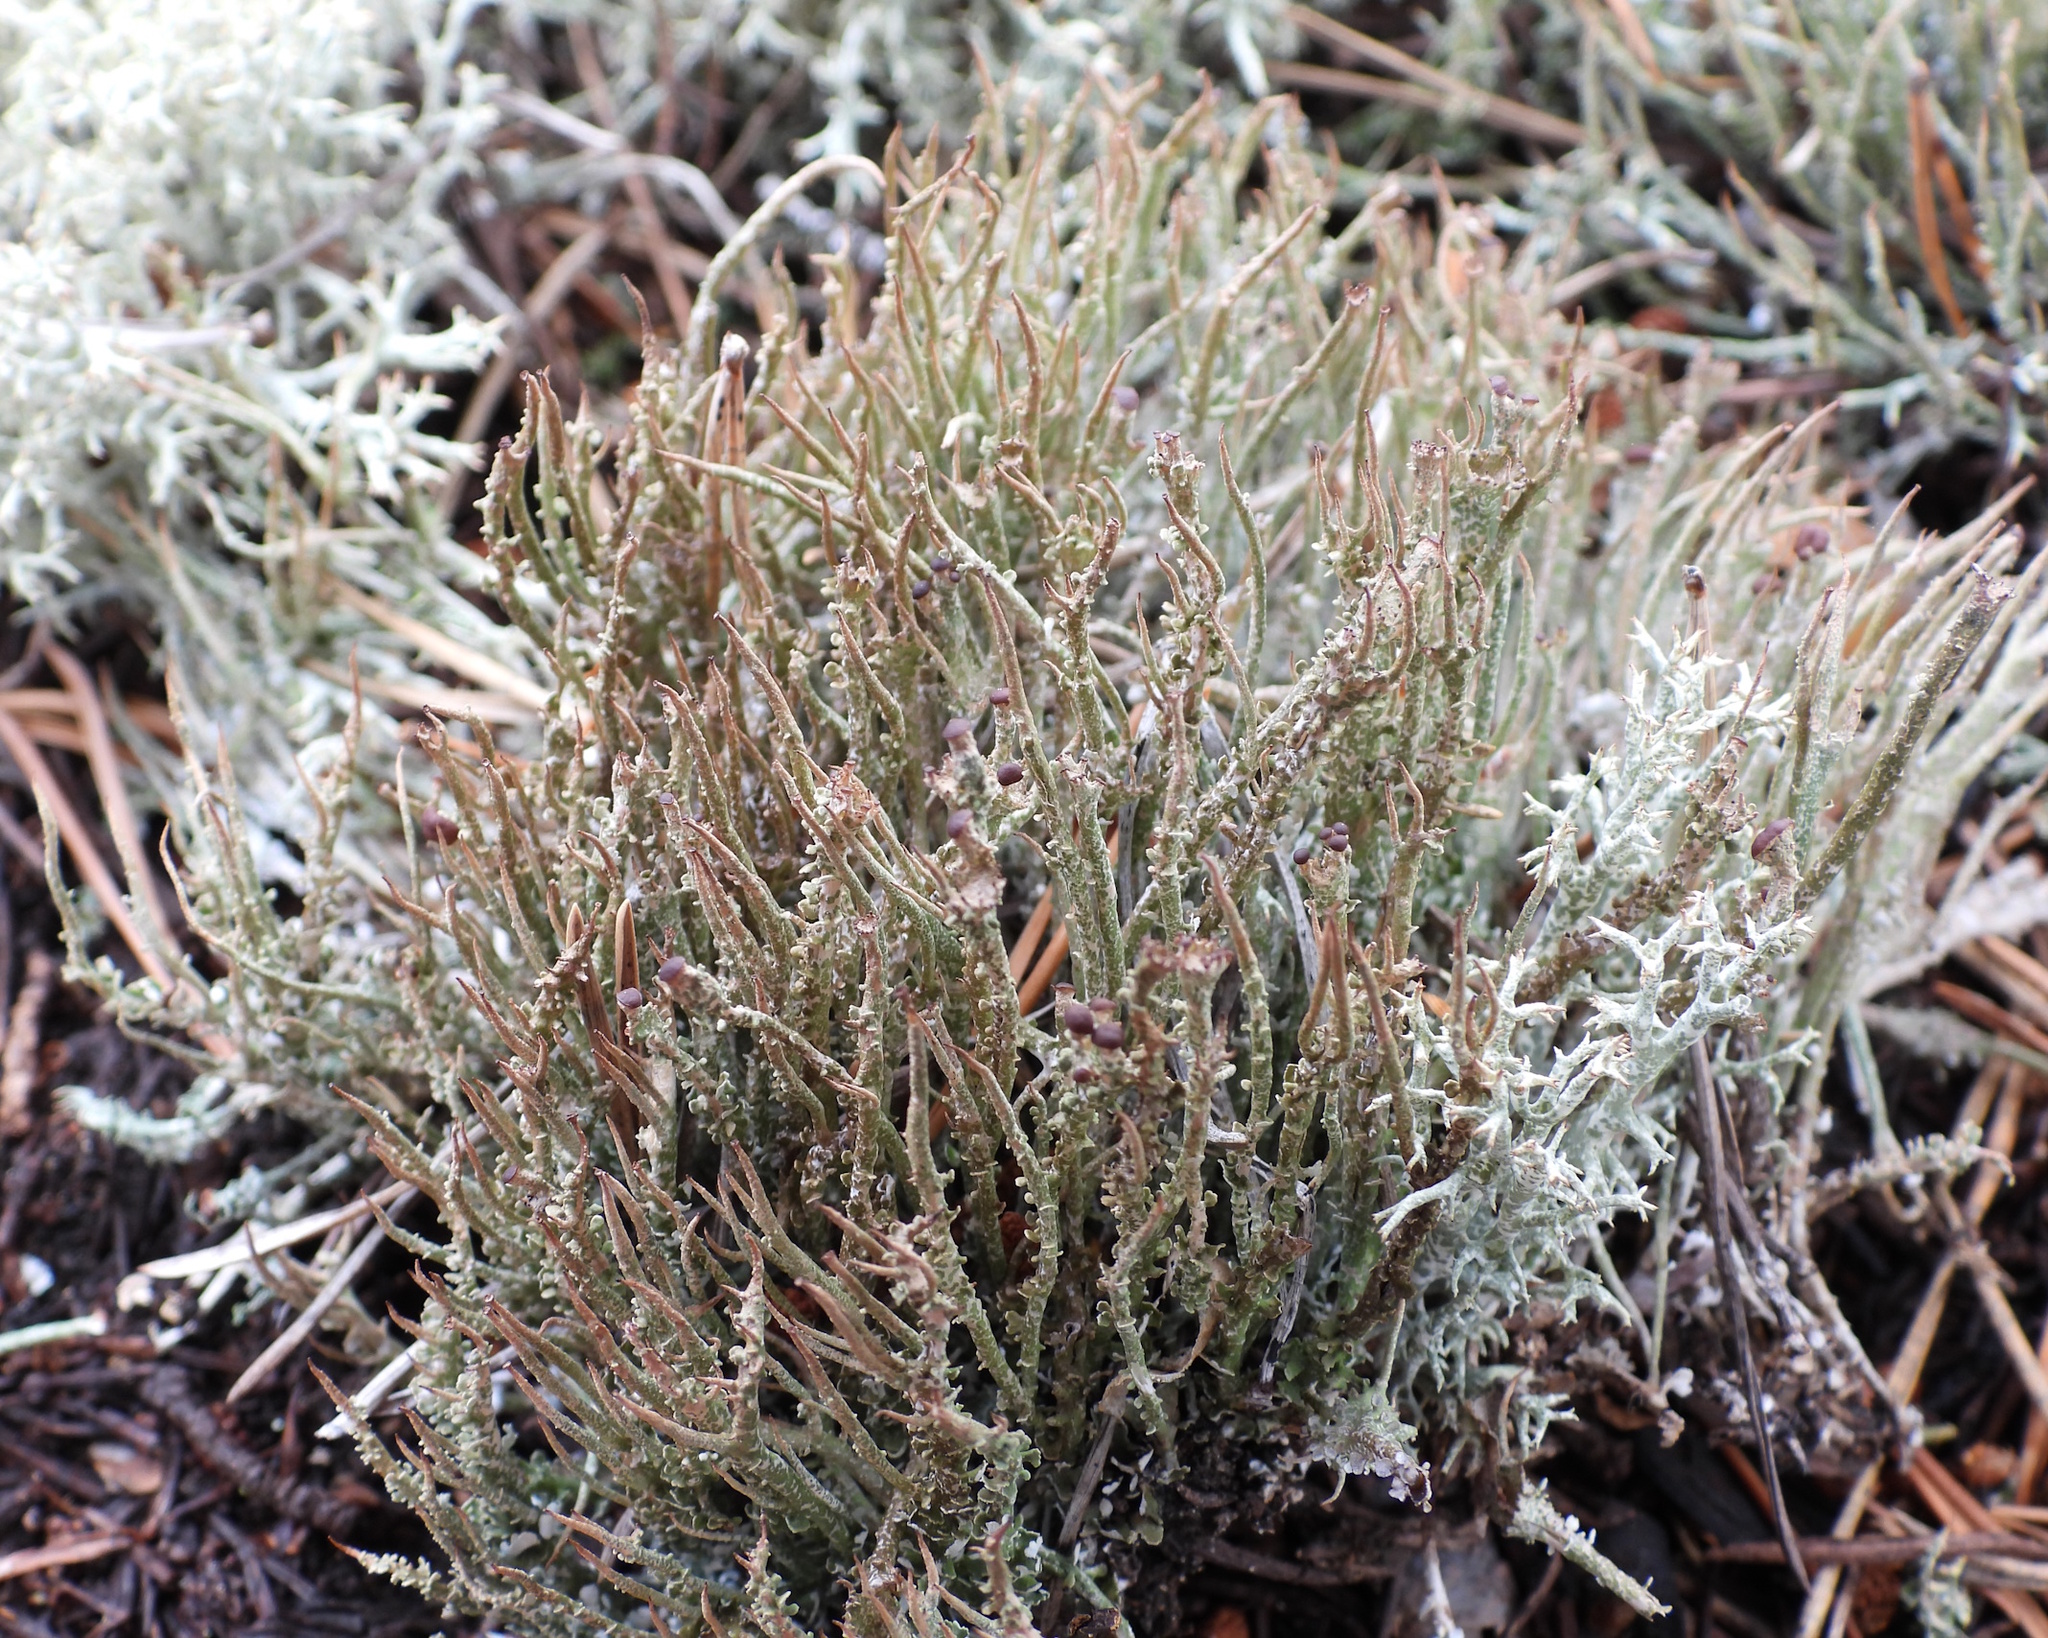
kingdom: Fungi
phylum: Ascomycota
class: Lecanoromycetes
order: Lecanorales
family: Cladoniaceae
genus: Cladonia
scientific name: Cladonia gracilis
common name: Smooth clad lichen
